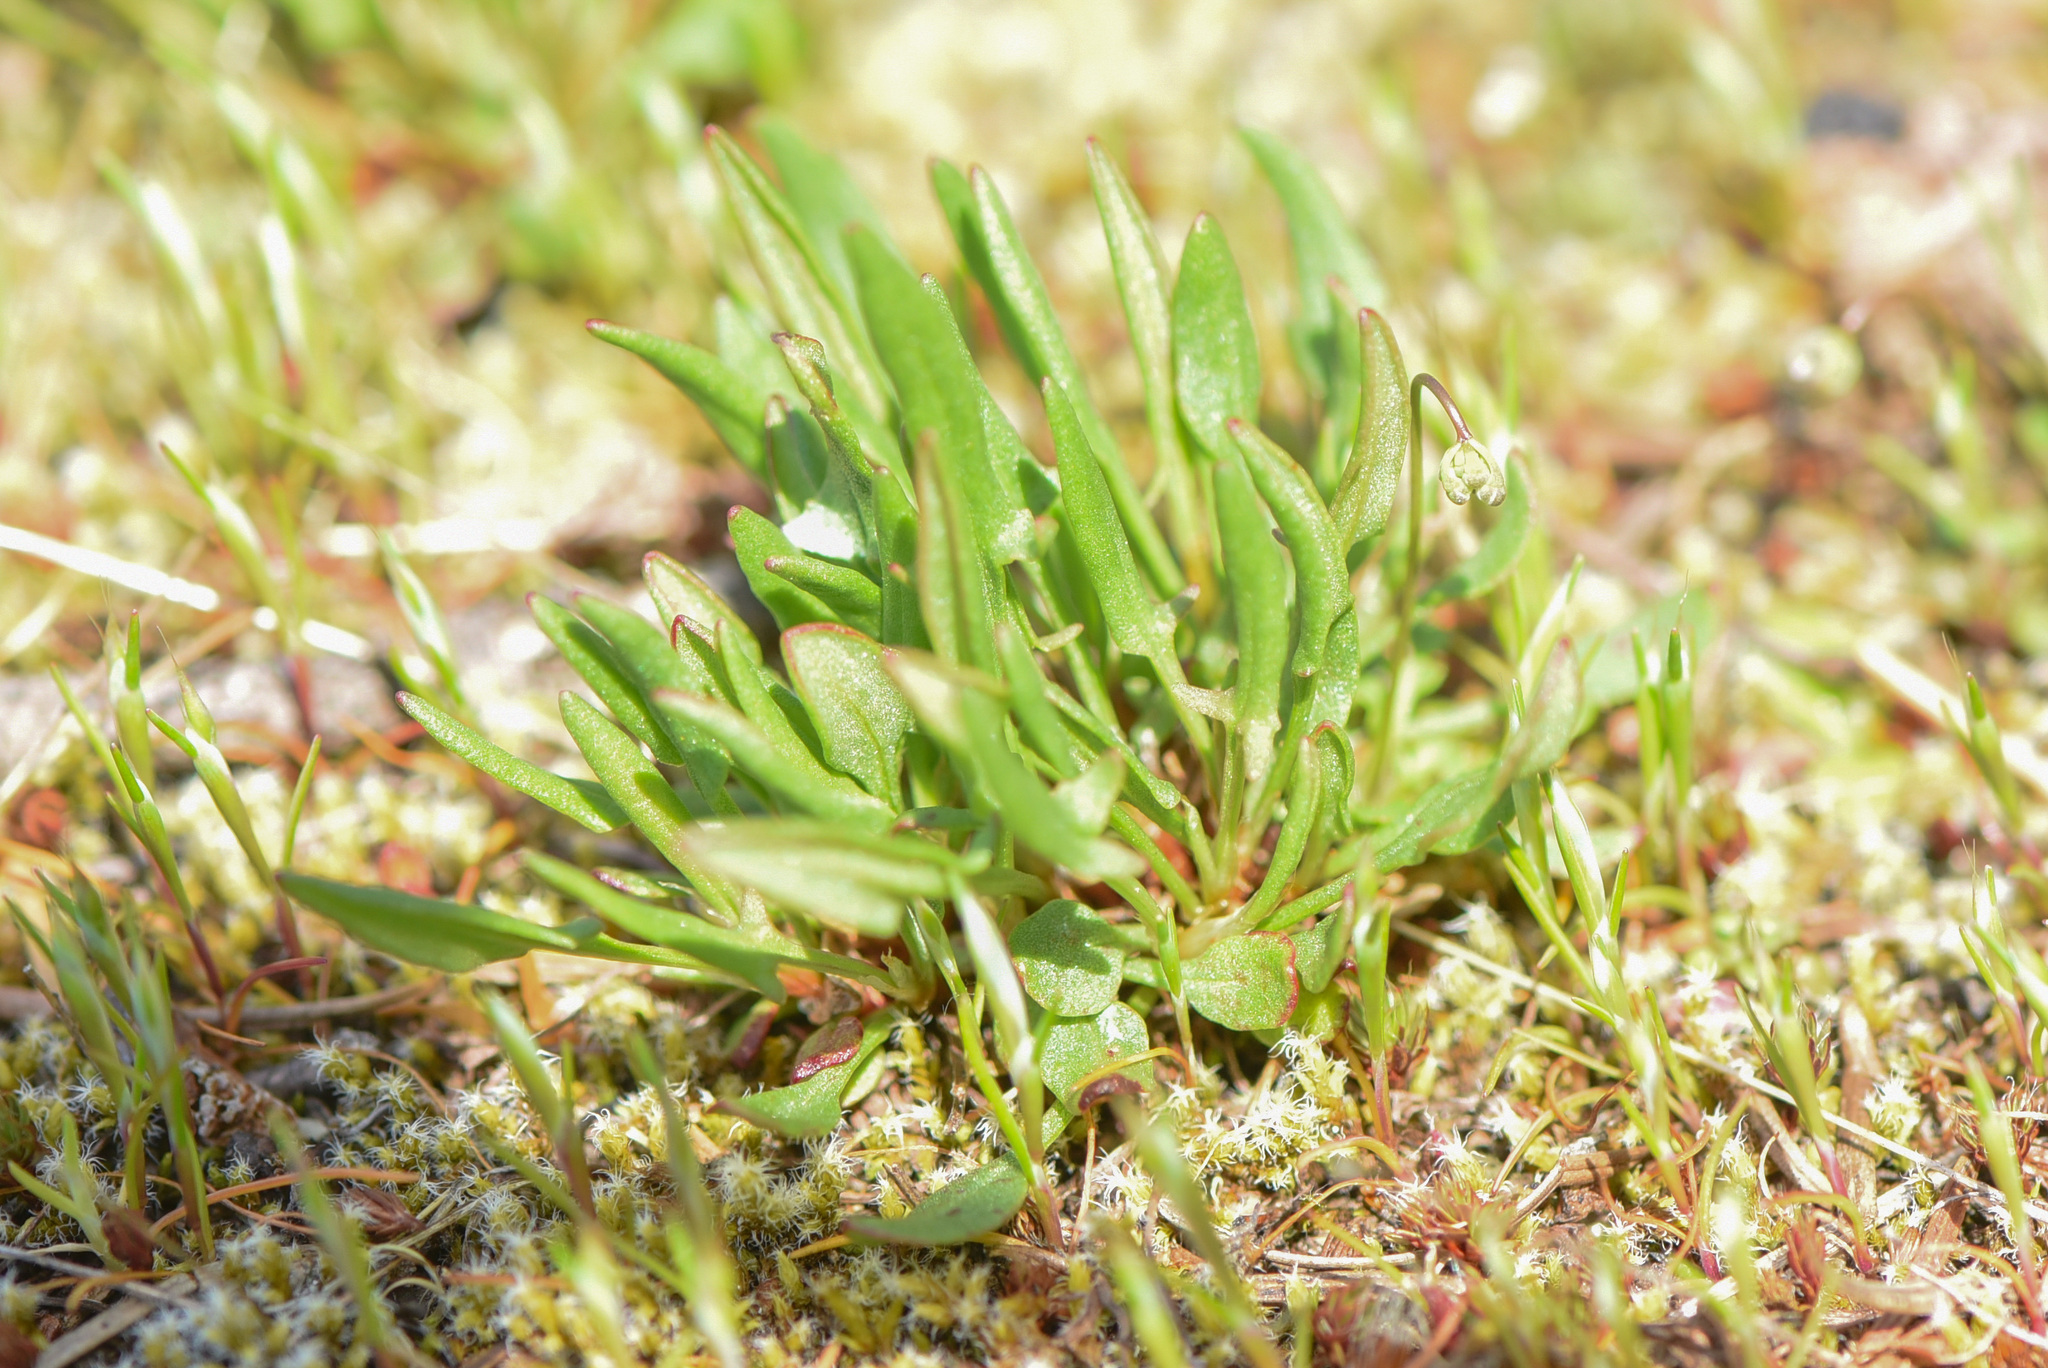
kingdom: Plantae
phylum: Tracheophyta
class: Magnoliopsida
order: Caryophyllales
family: Polygonaceae
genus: Rumex
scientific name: Rumex acetosella
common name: Common sheep sorrel
